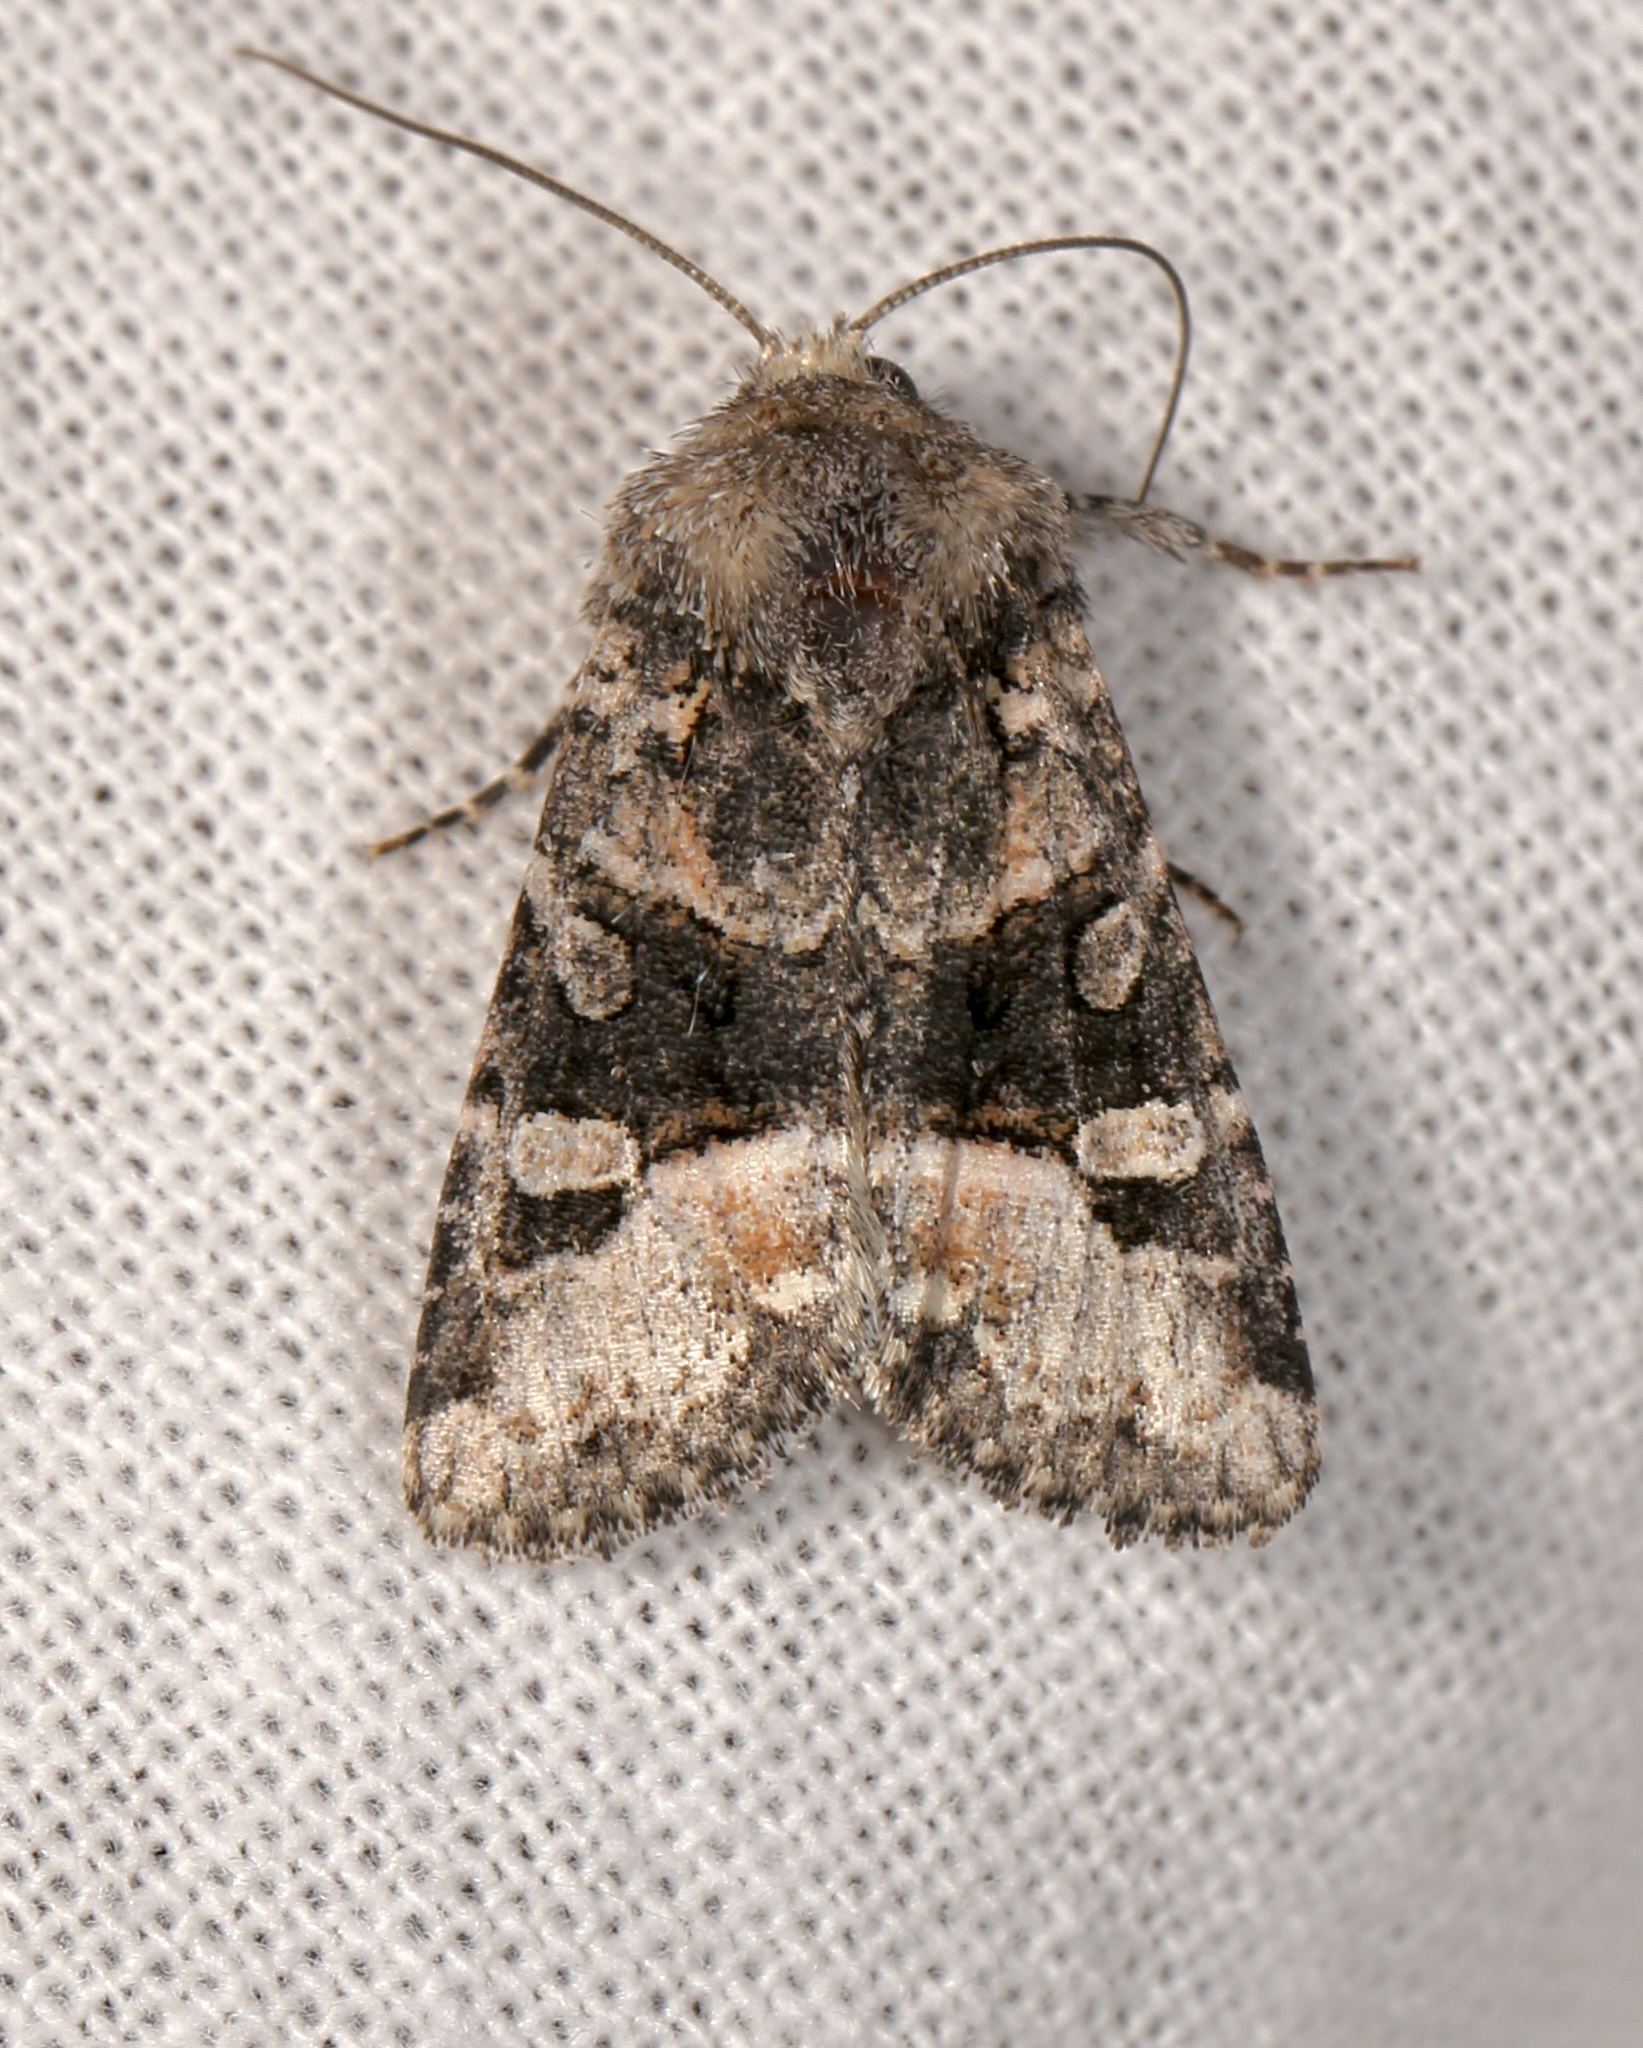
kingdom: Animalia
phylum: Arthropoda
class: Insecta
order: Lepidoptera
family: Noctuidae
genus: Lacinipolia
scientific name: Lacinipolia olivacea
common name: Olive arches moth
